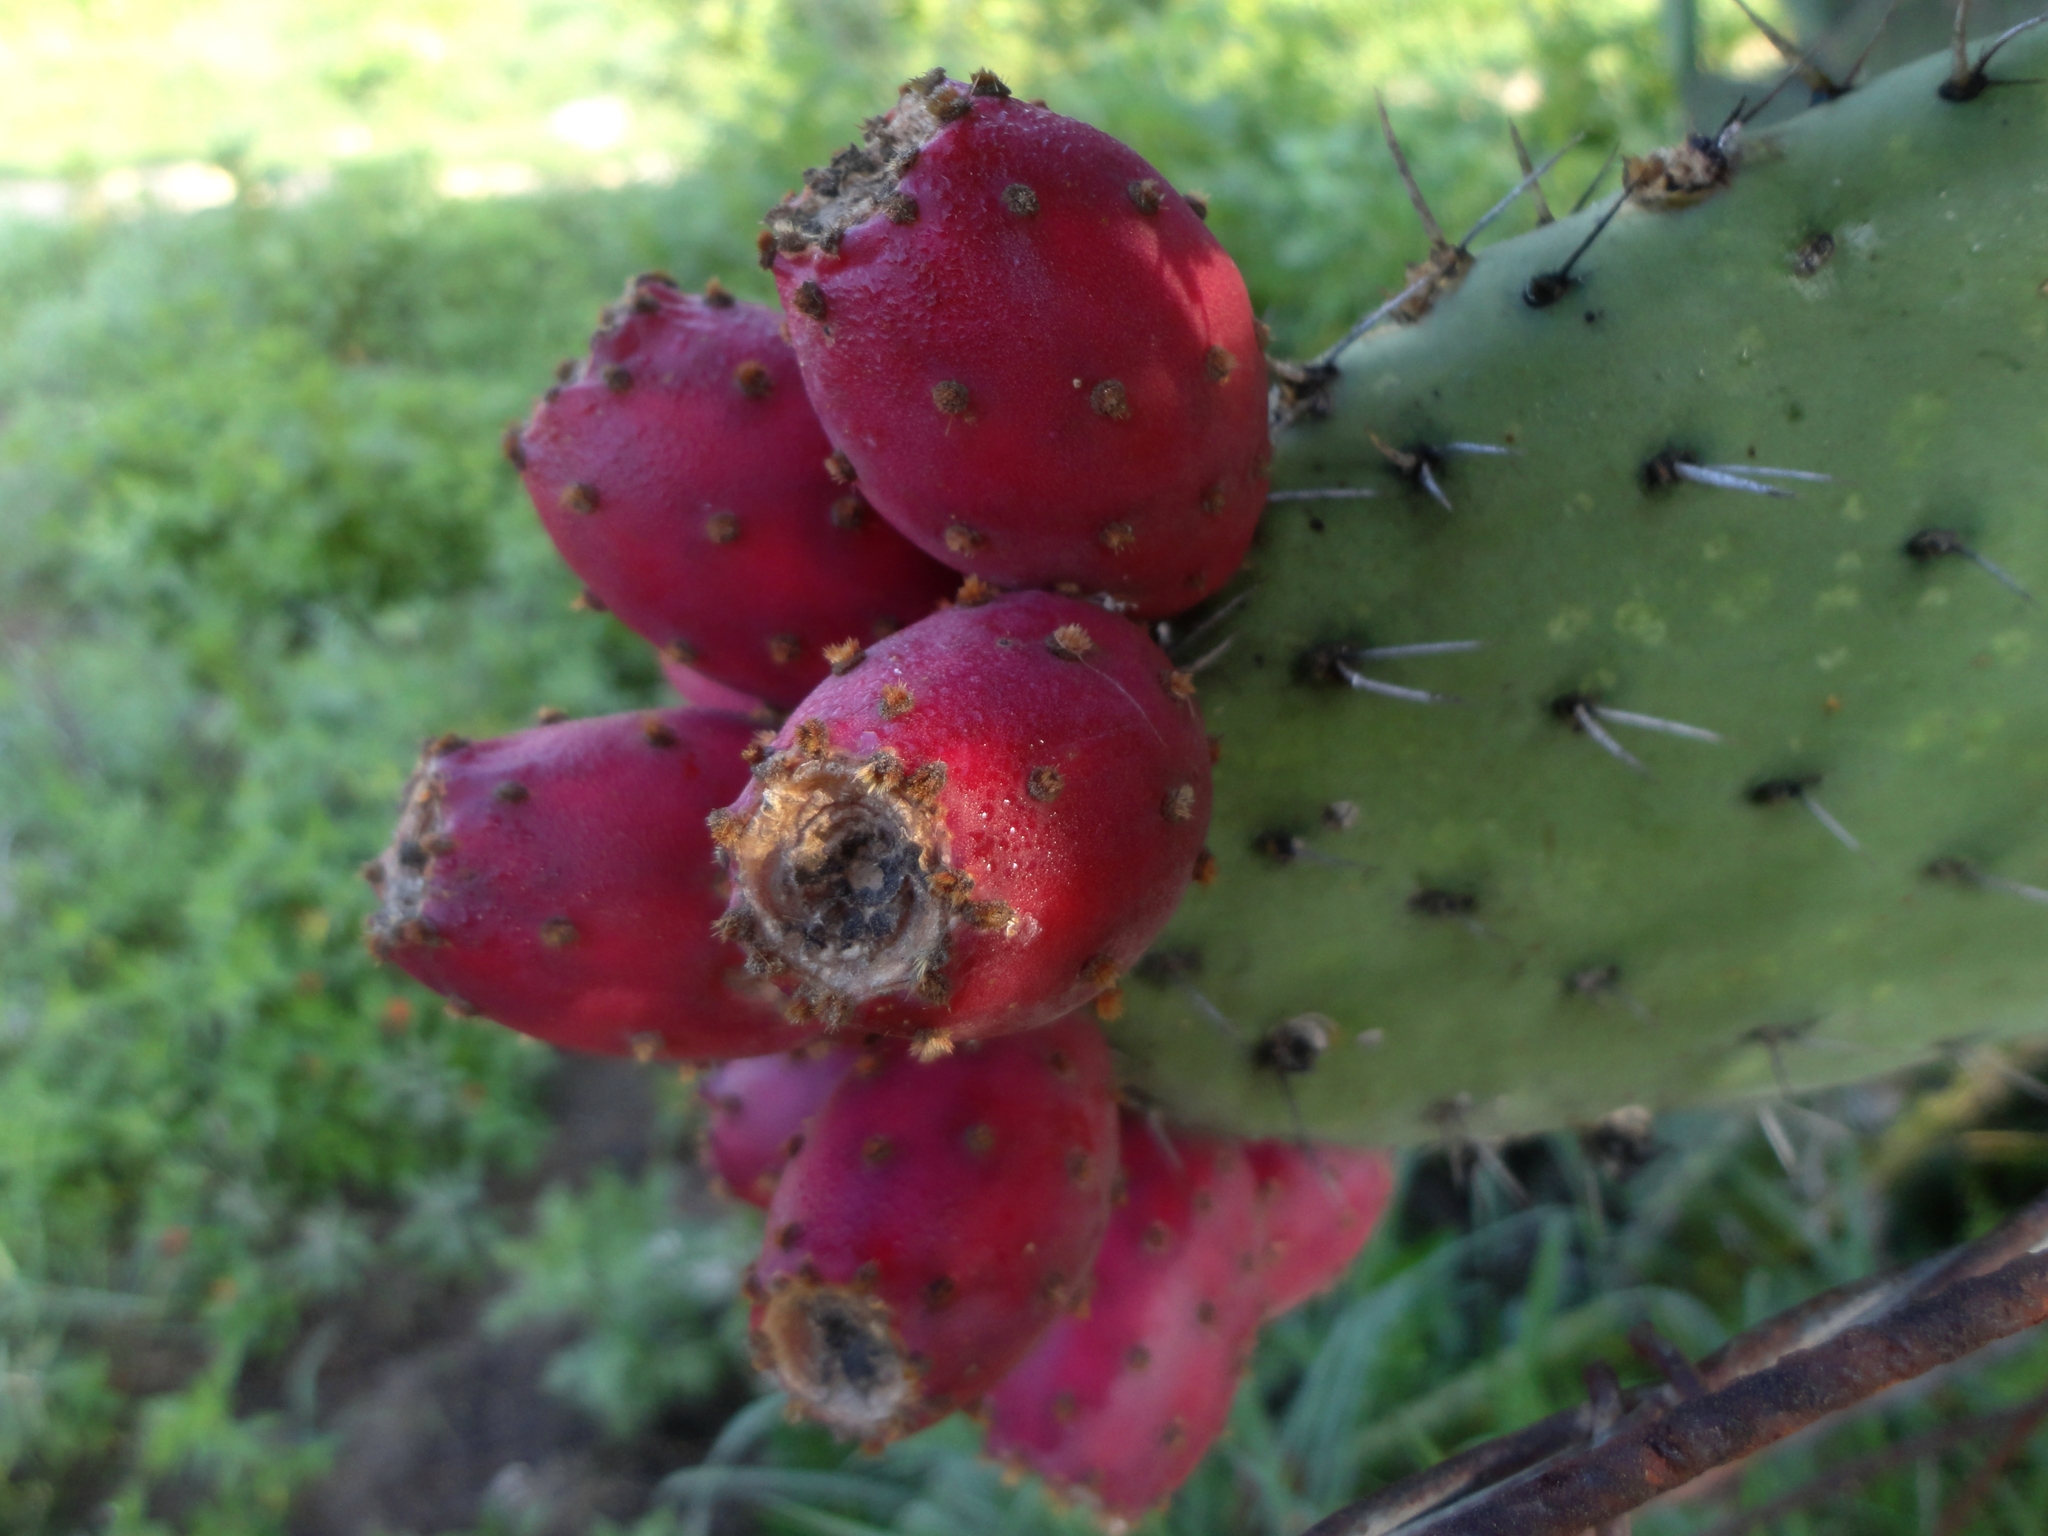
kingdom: Plantae
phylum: Tracheophyta
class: Magnoliopsida
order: Caryophyllales
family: Cactaceae
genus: Opuntia
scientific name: Opuntia streptacantha
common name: Gracemere-pear
